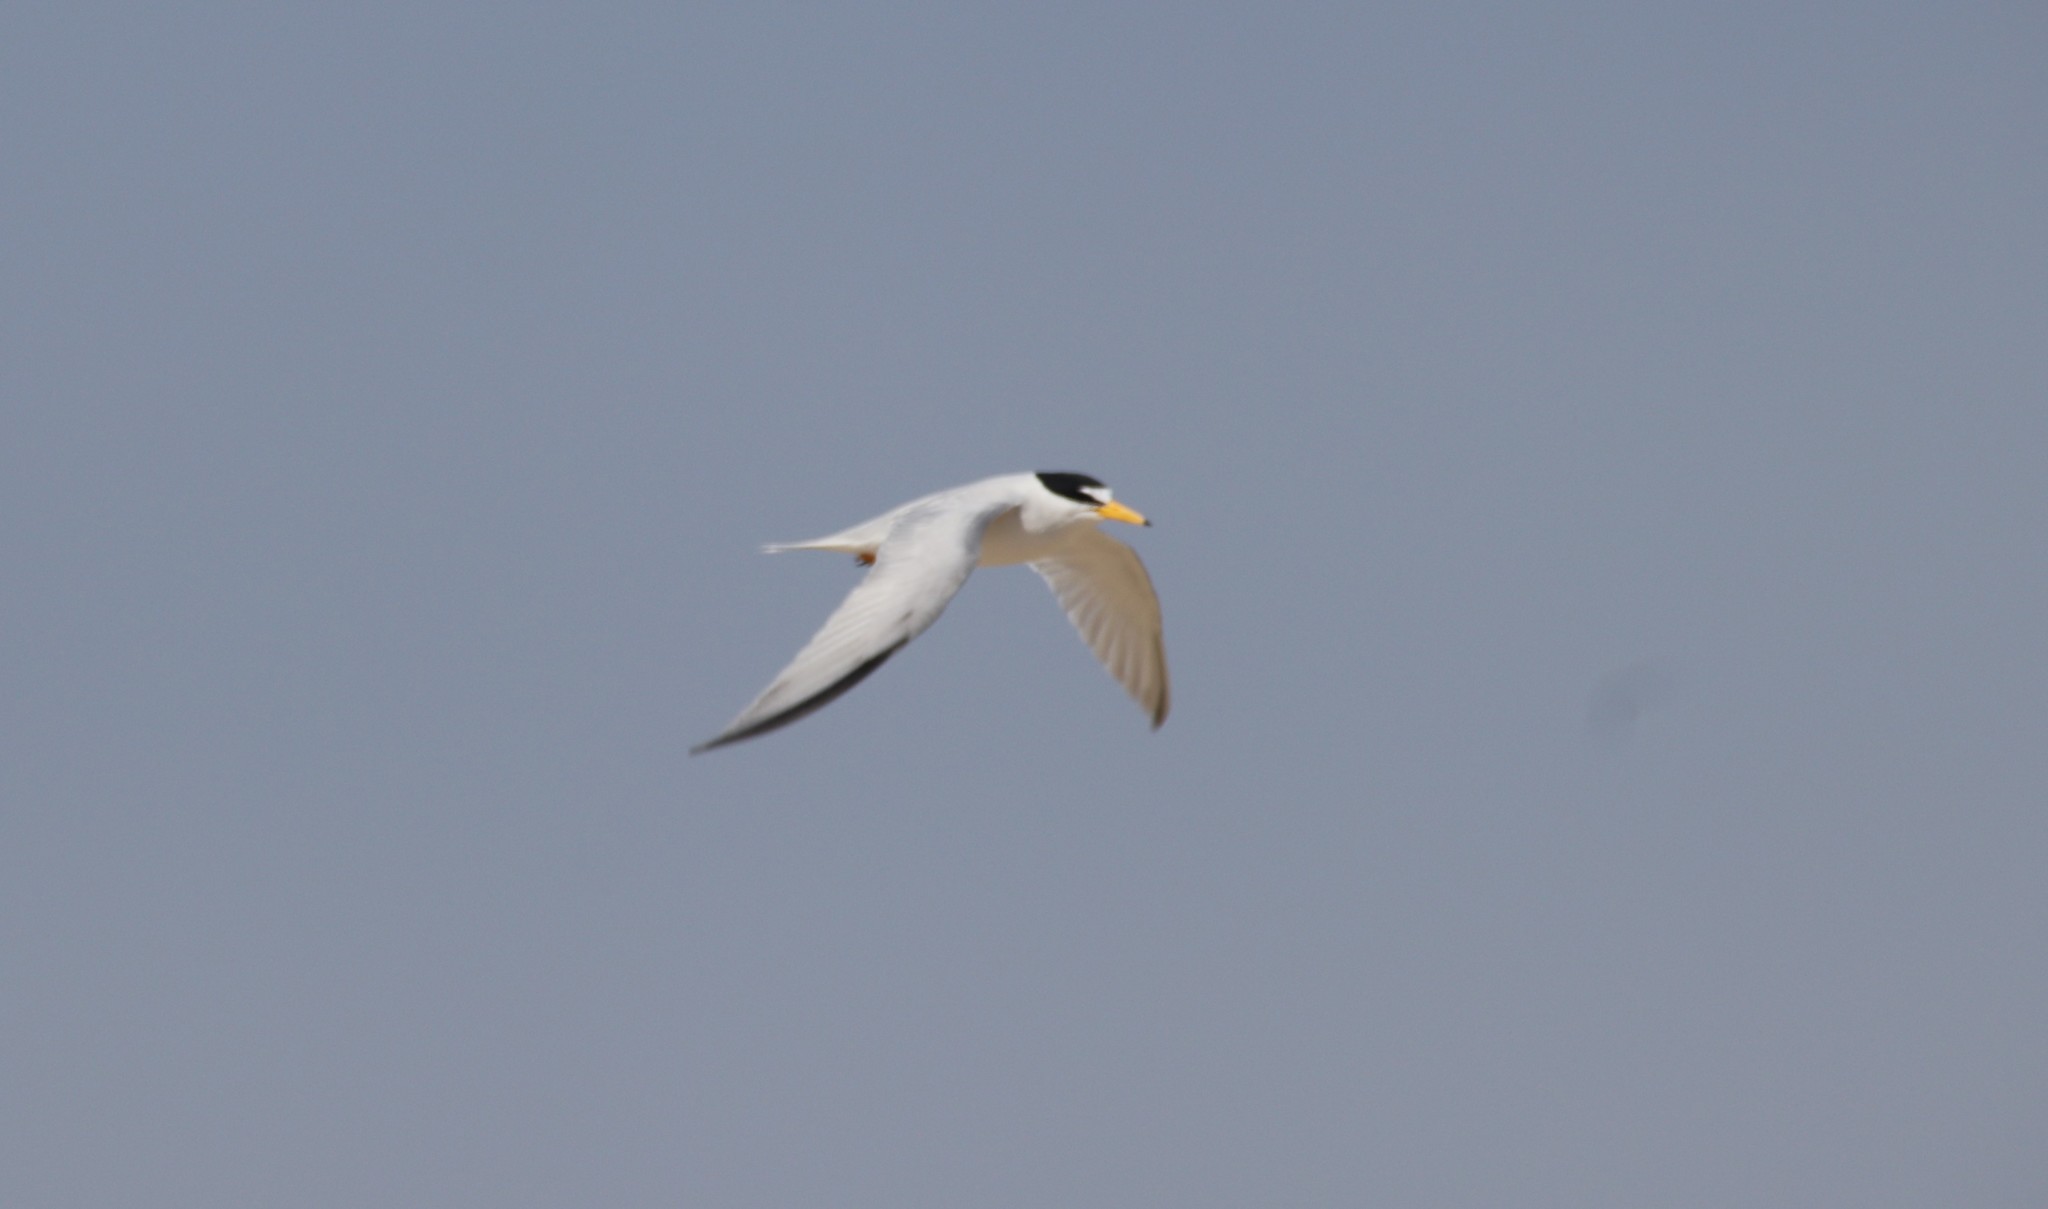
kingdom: Animalia
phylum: Chordata
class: Aves
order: Charadriiformes
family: Laridae
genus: Sternula
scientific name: Sternula antillarum
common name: Least tern
